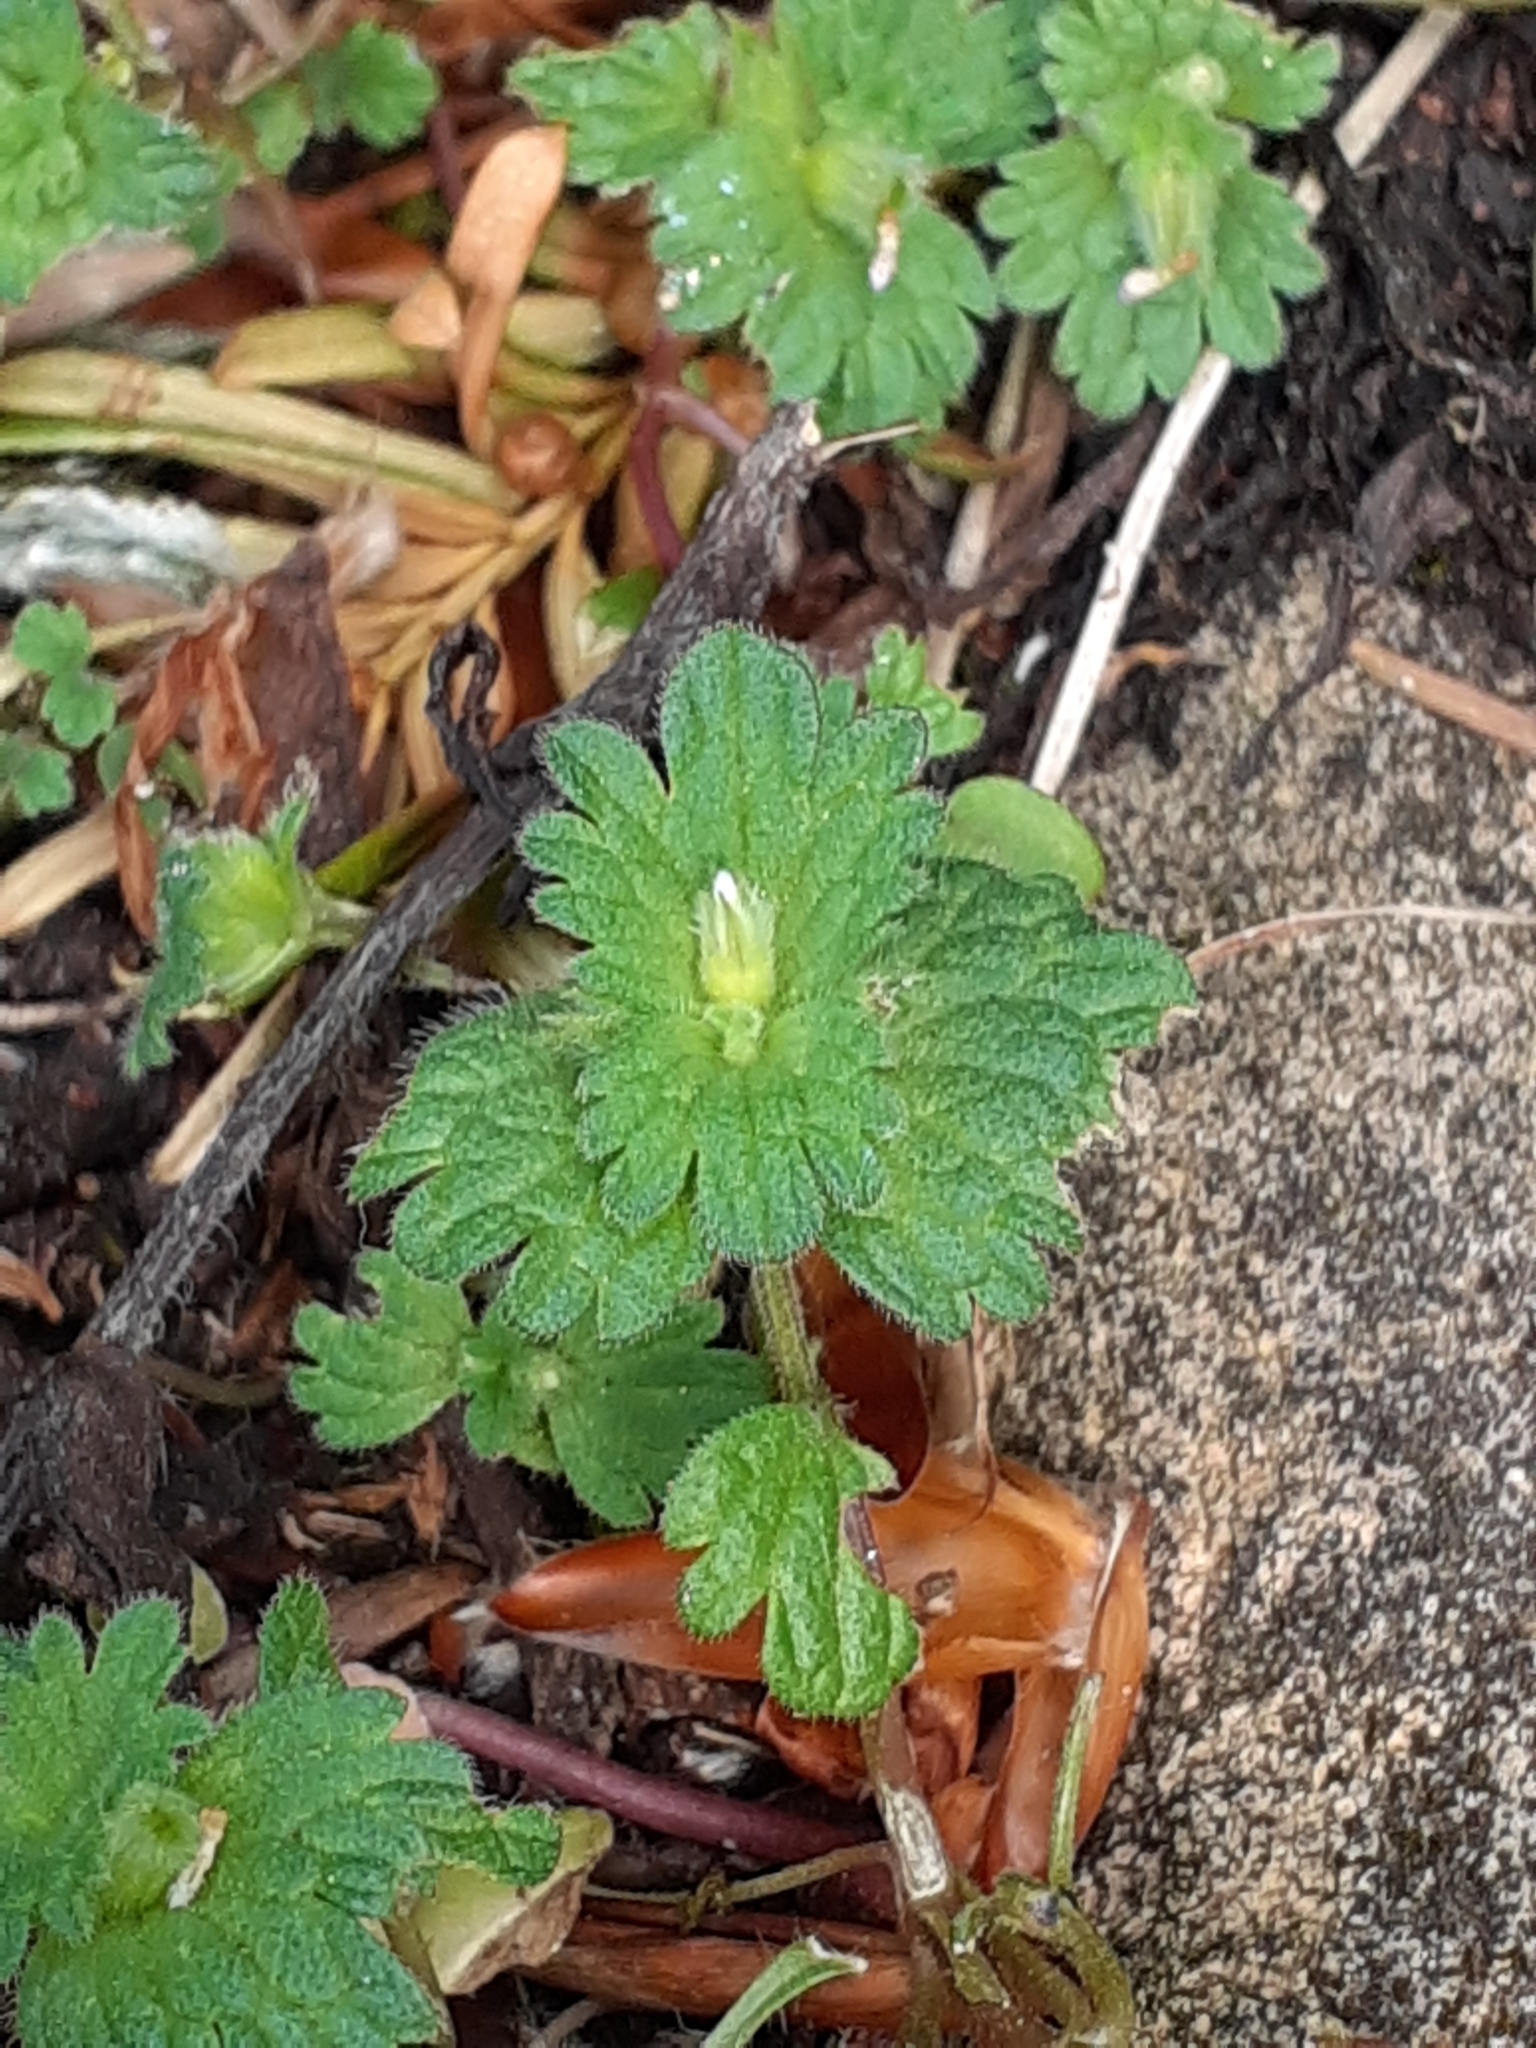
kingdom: Plantae
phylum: Tracheophyta
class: Magnoliopsida
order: Lamiales
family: Lamiaceae
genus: Lamium
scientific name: Lamium amplexicaule
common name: Henbit dead-nettle
